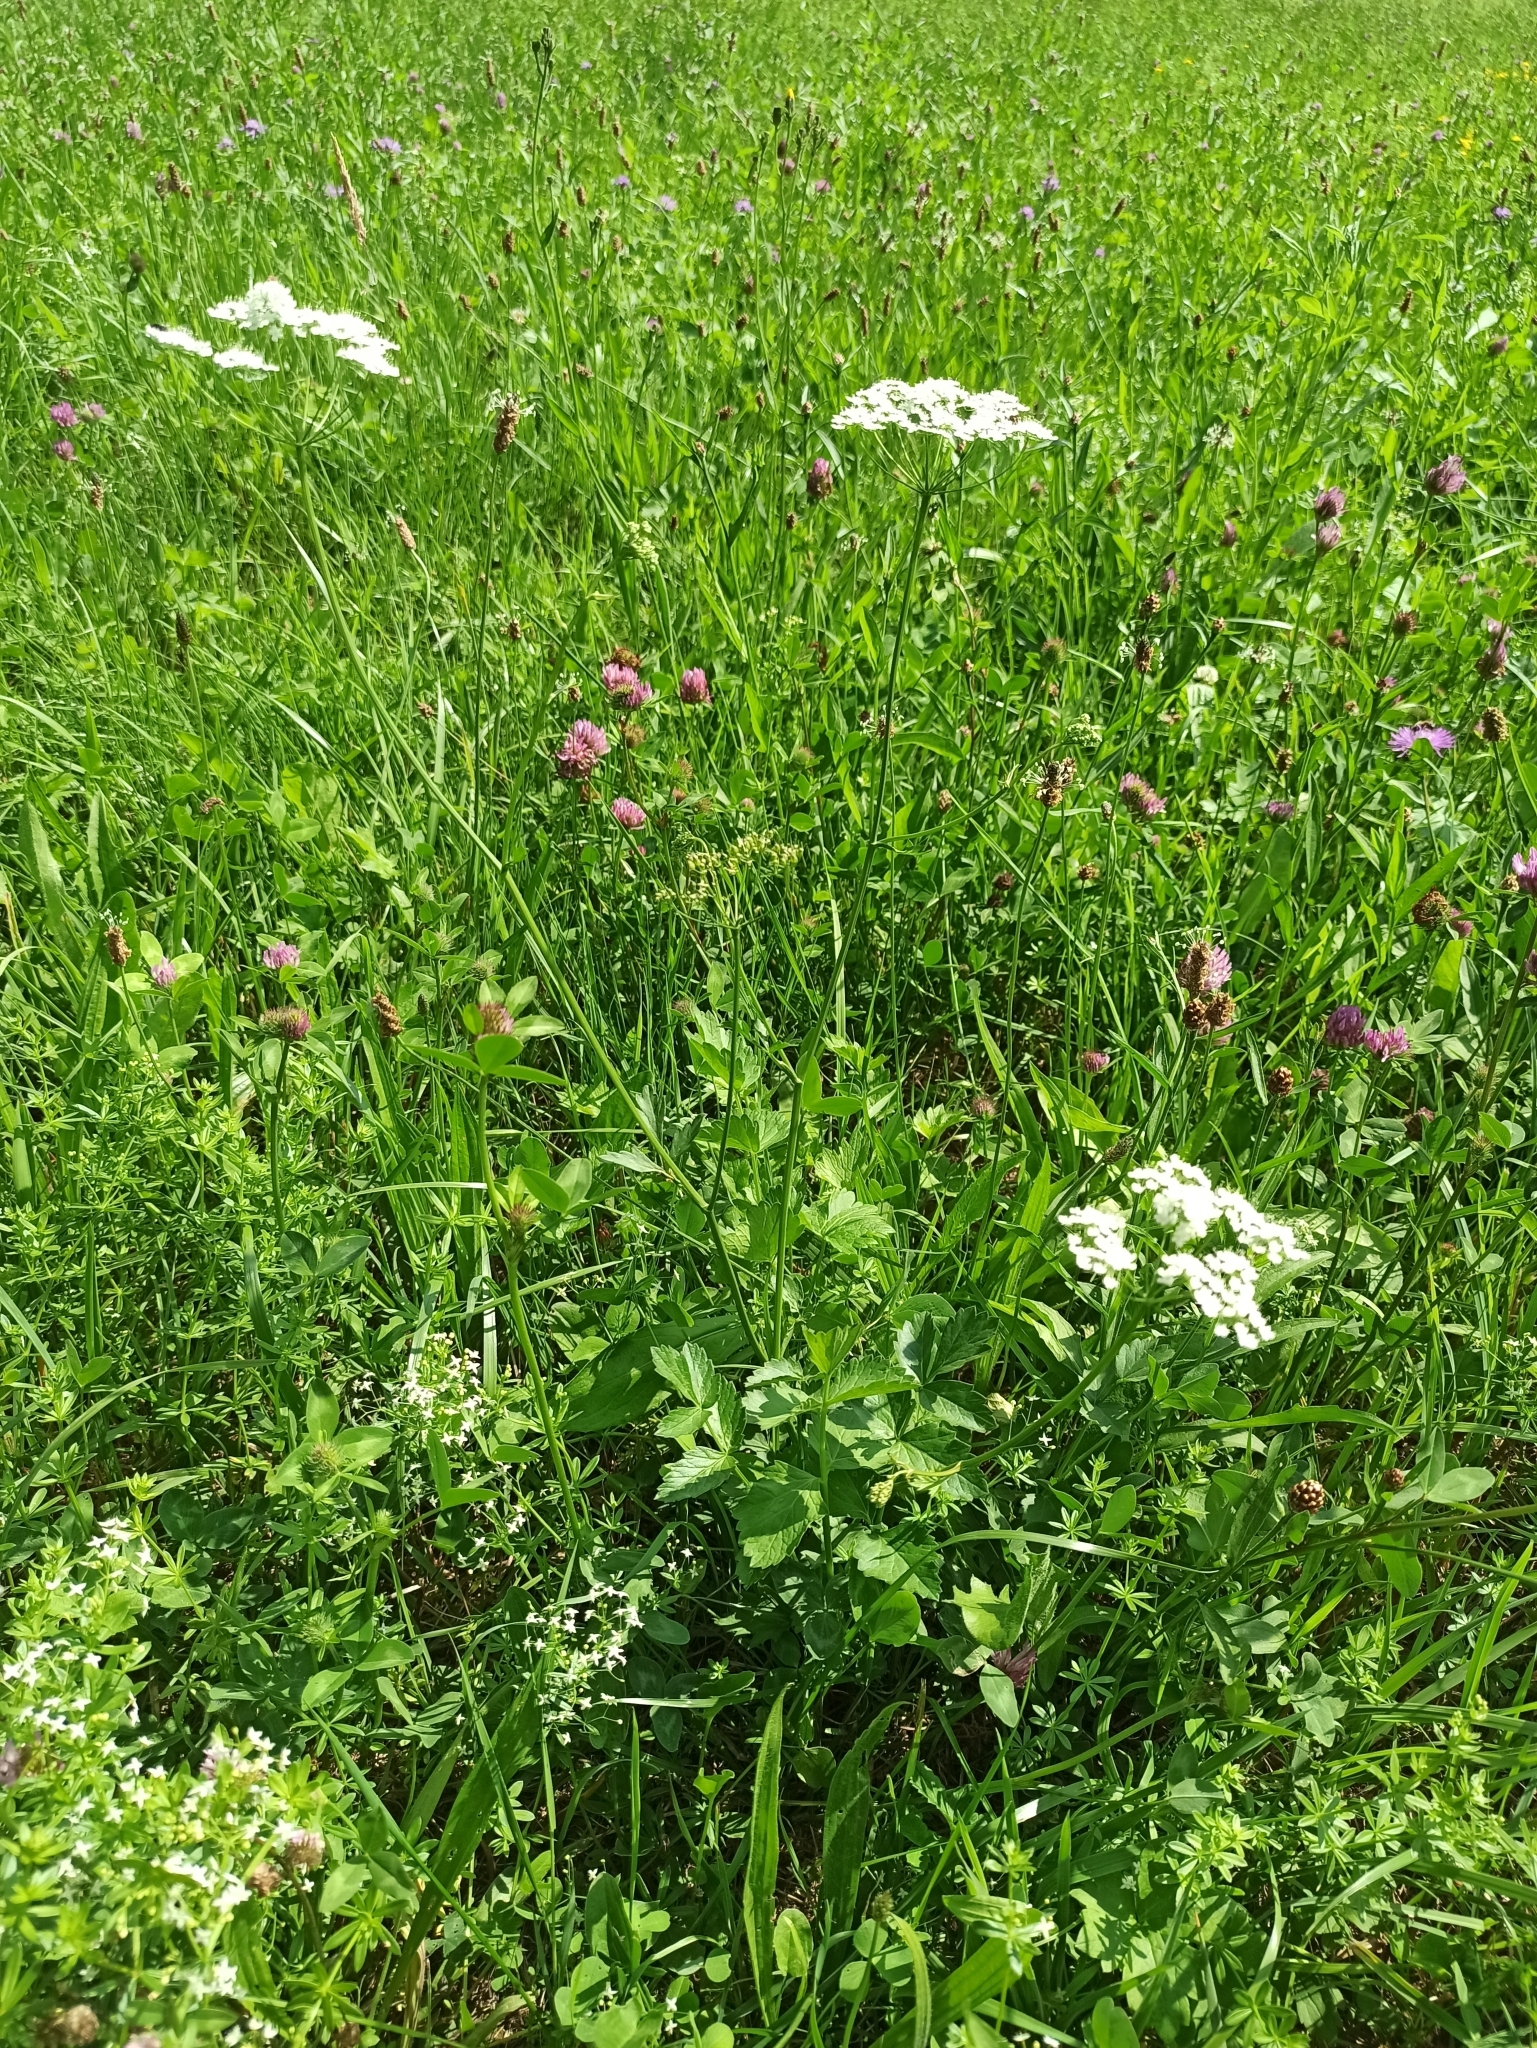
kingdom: Plantae
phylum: Tracheophyta
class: Magnoliopsida
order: Apiales
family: Apiaceae
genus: Pimpinella
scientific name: Pimpinella major
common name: Greater burnet-saxifrage
